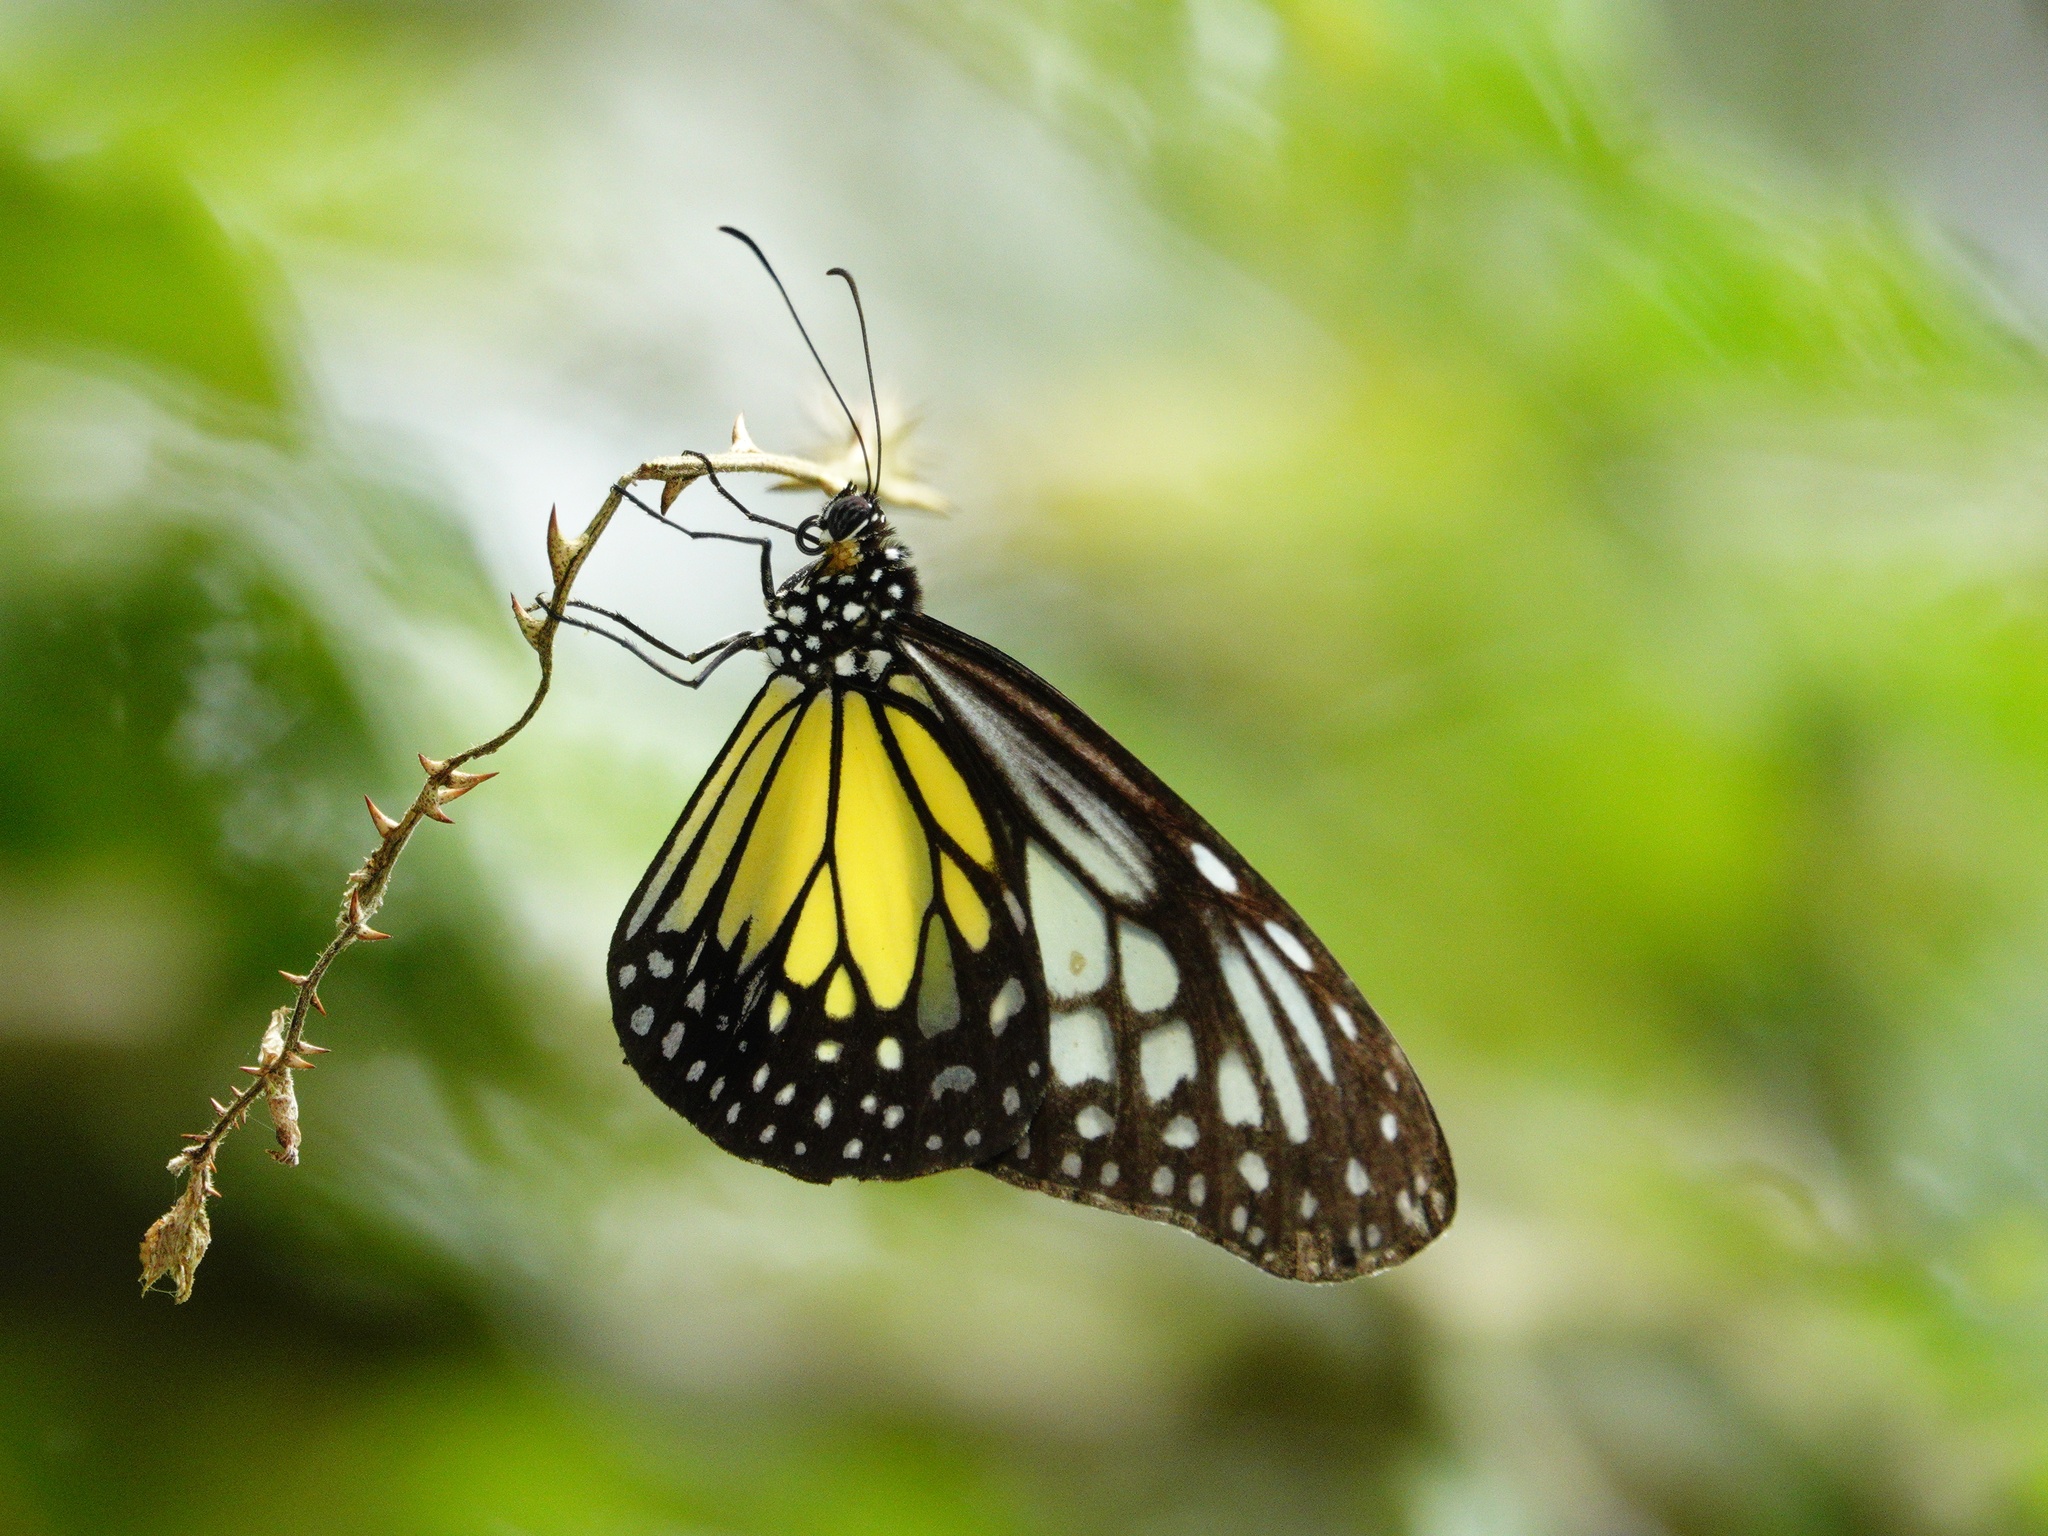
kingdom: Animalia
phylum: Arthropoda
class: Insecta
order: Lepidoptera
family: Nymphalidae
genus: Parantica
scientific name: Parantica aspasia
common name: Yellow glassy tiger
